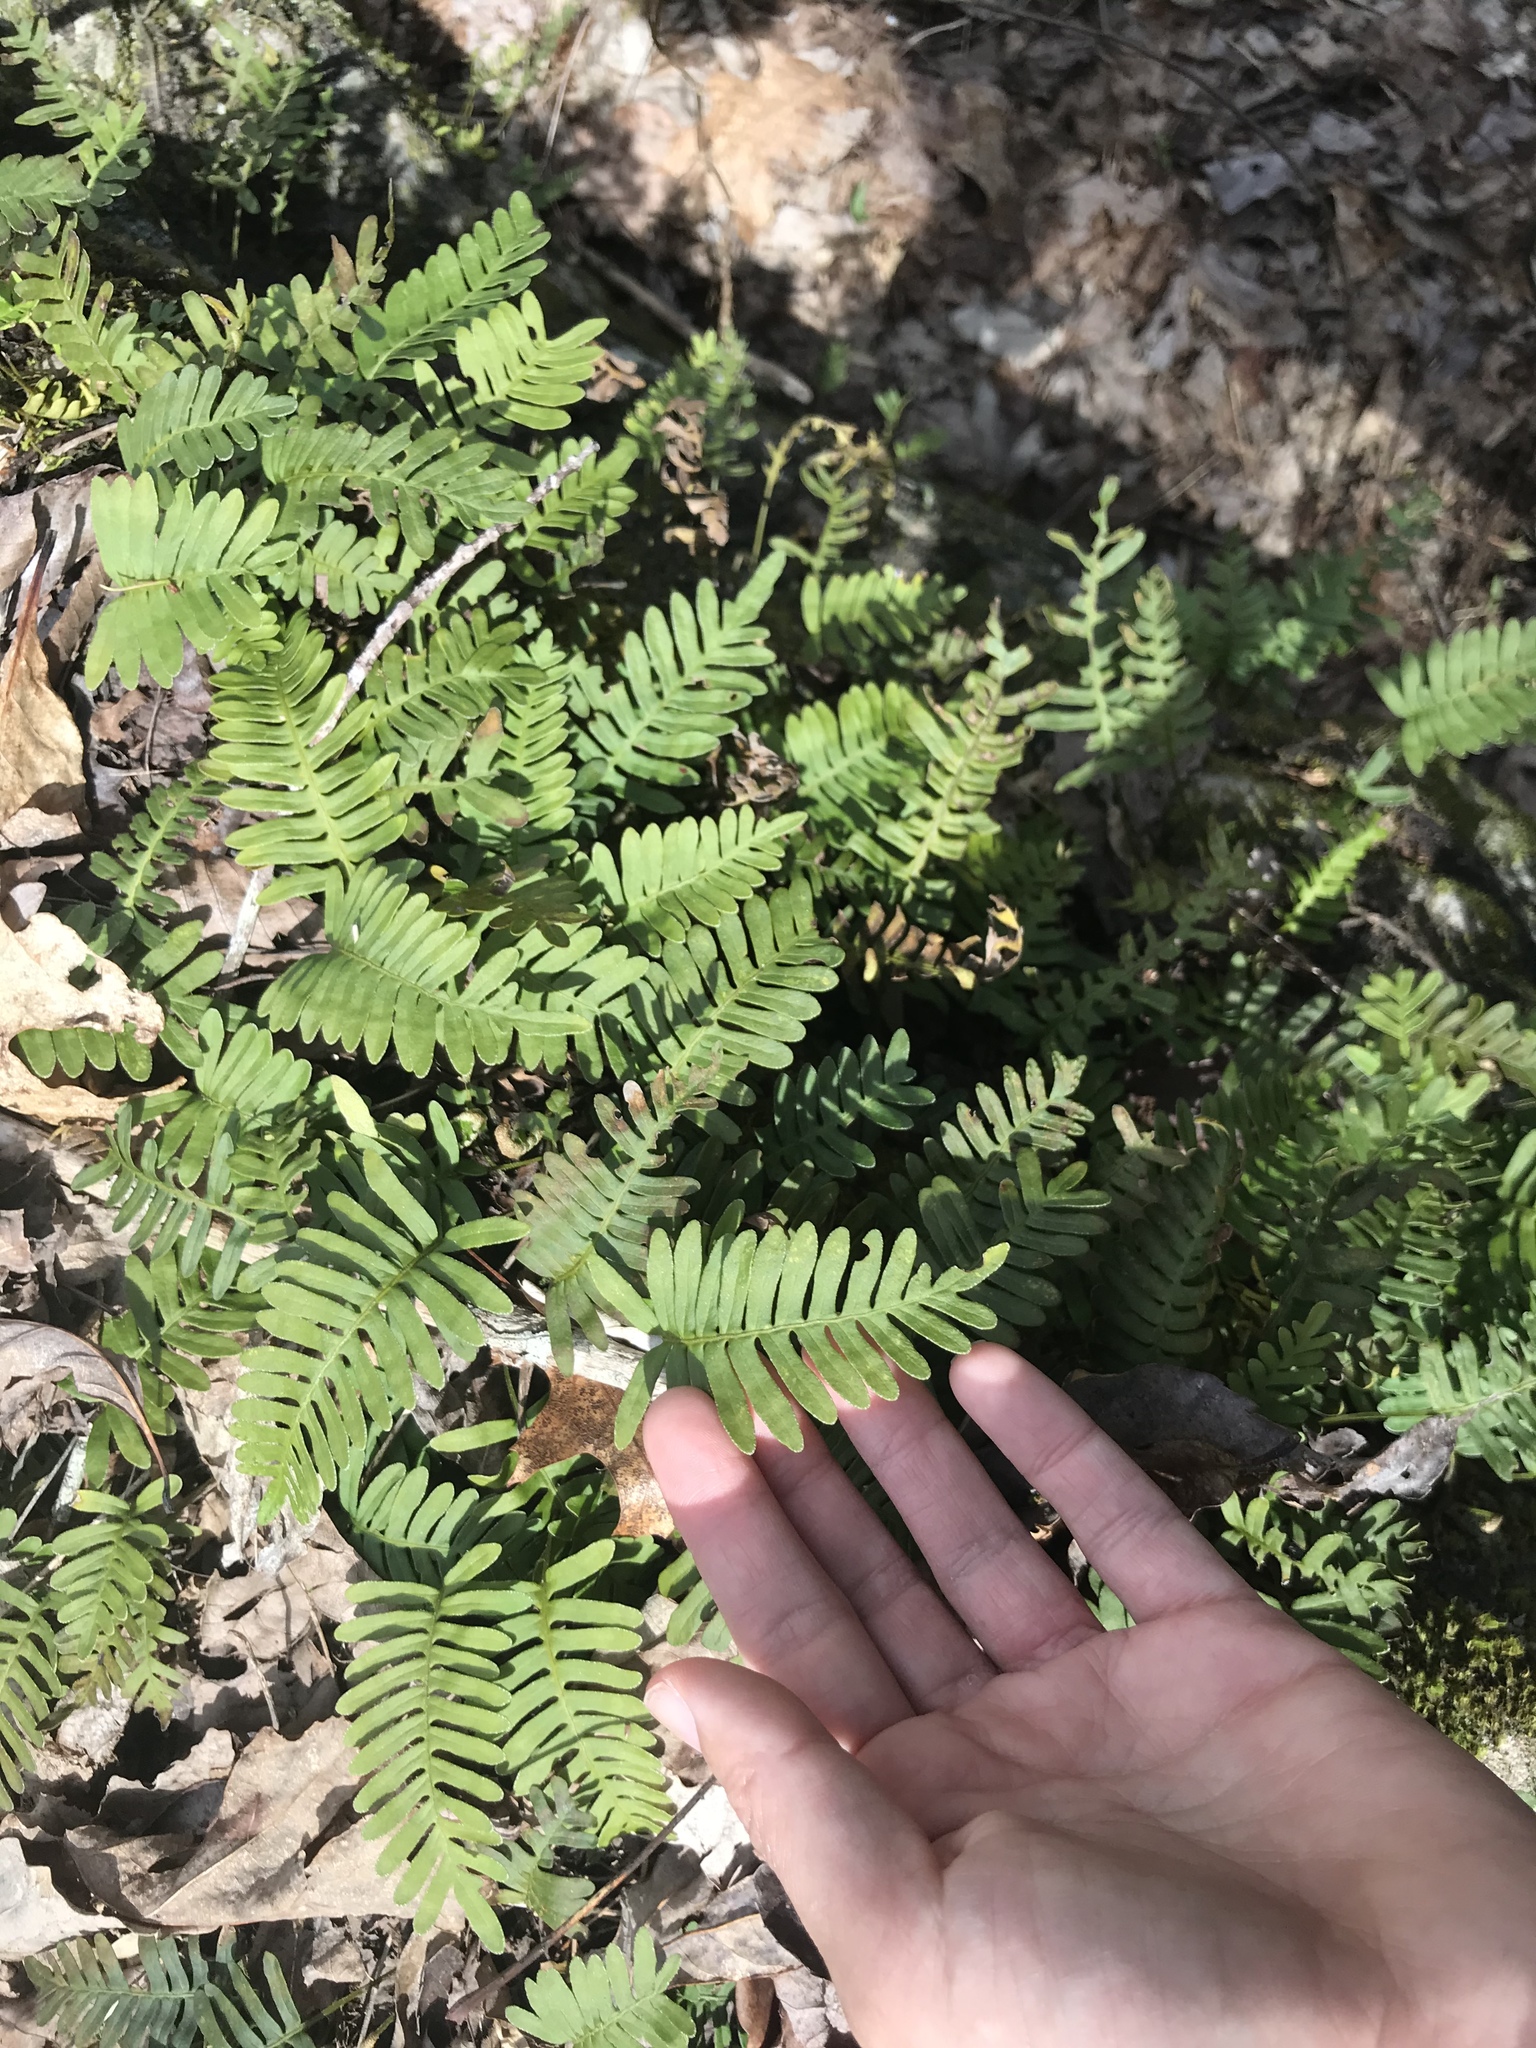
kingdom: Plantae
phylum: Tracheophyta
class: Polypodiopsida
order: Polypodiales
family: Polypodiaceae
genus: Pleopeltis
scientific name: Pleopeltis michauxiana
